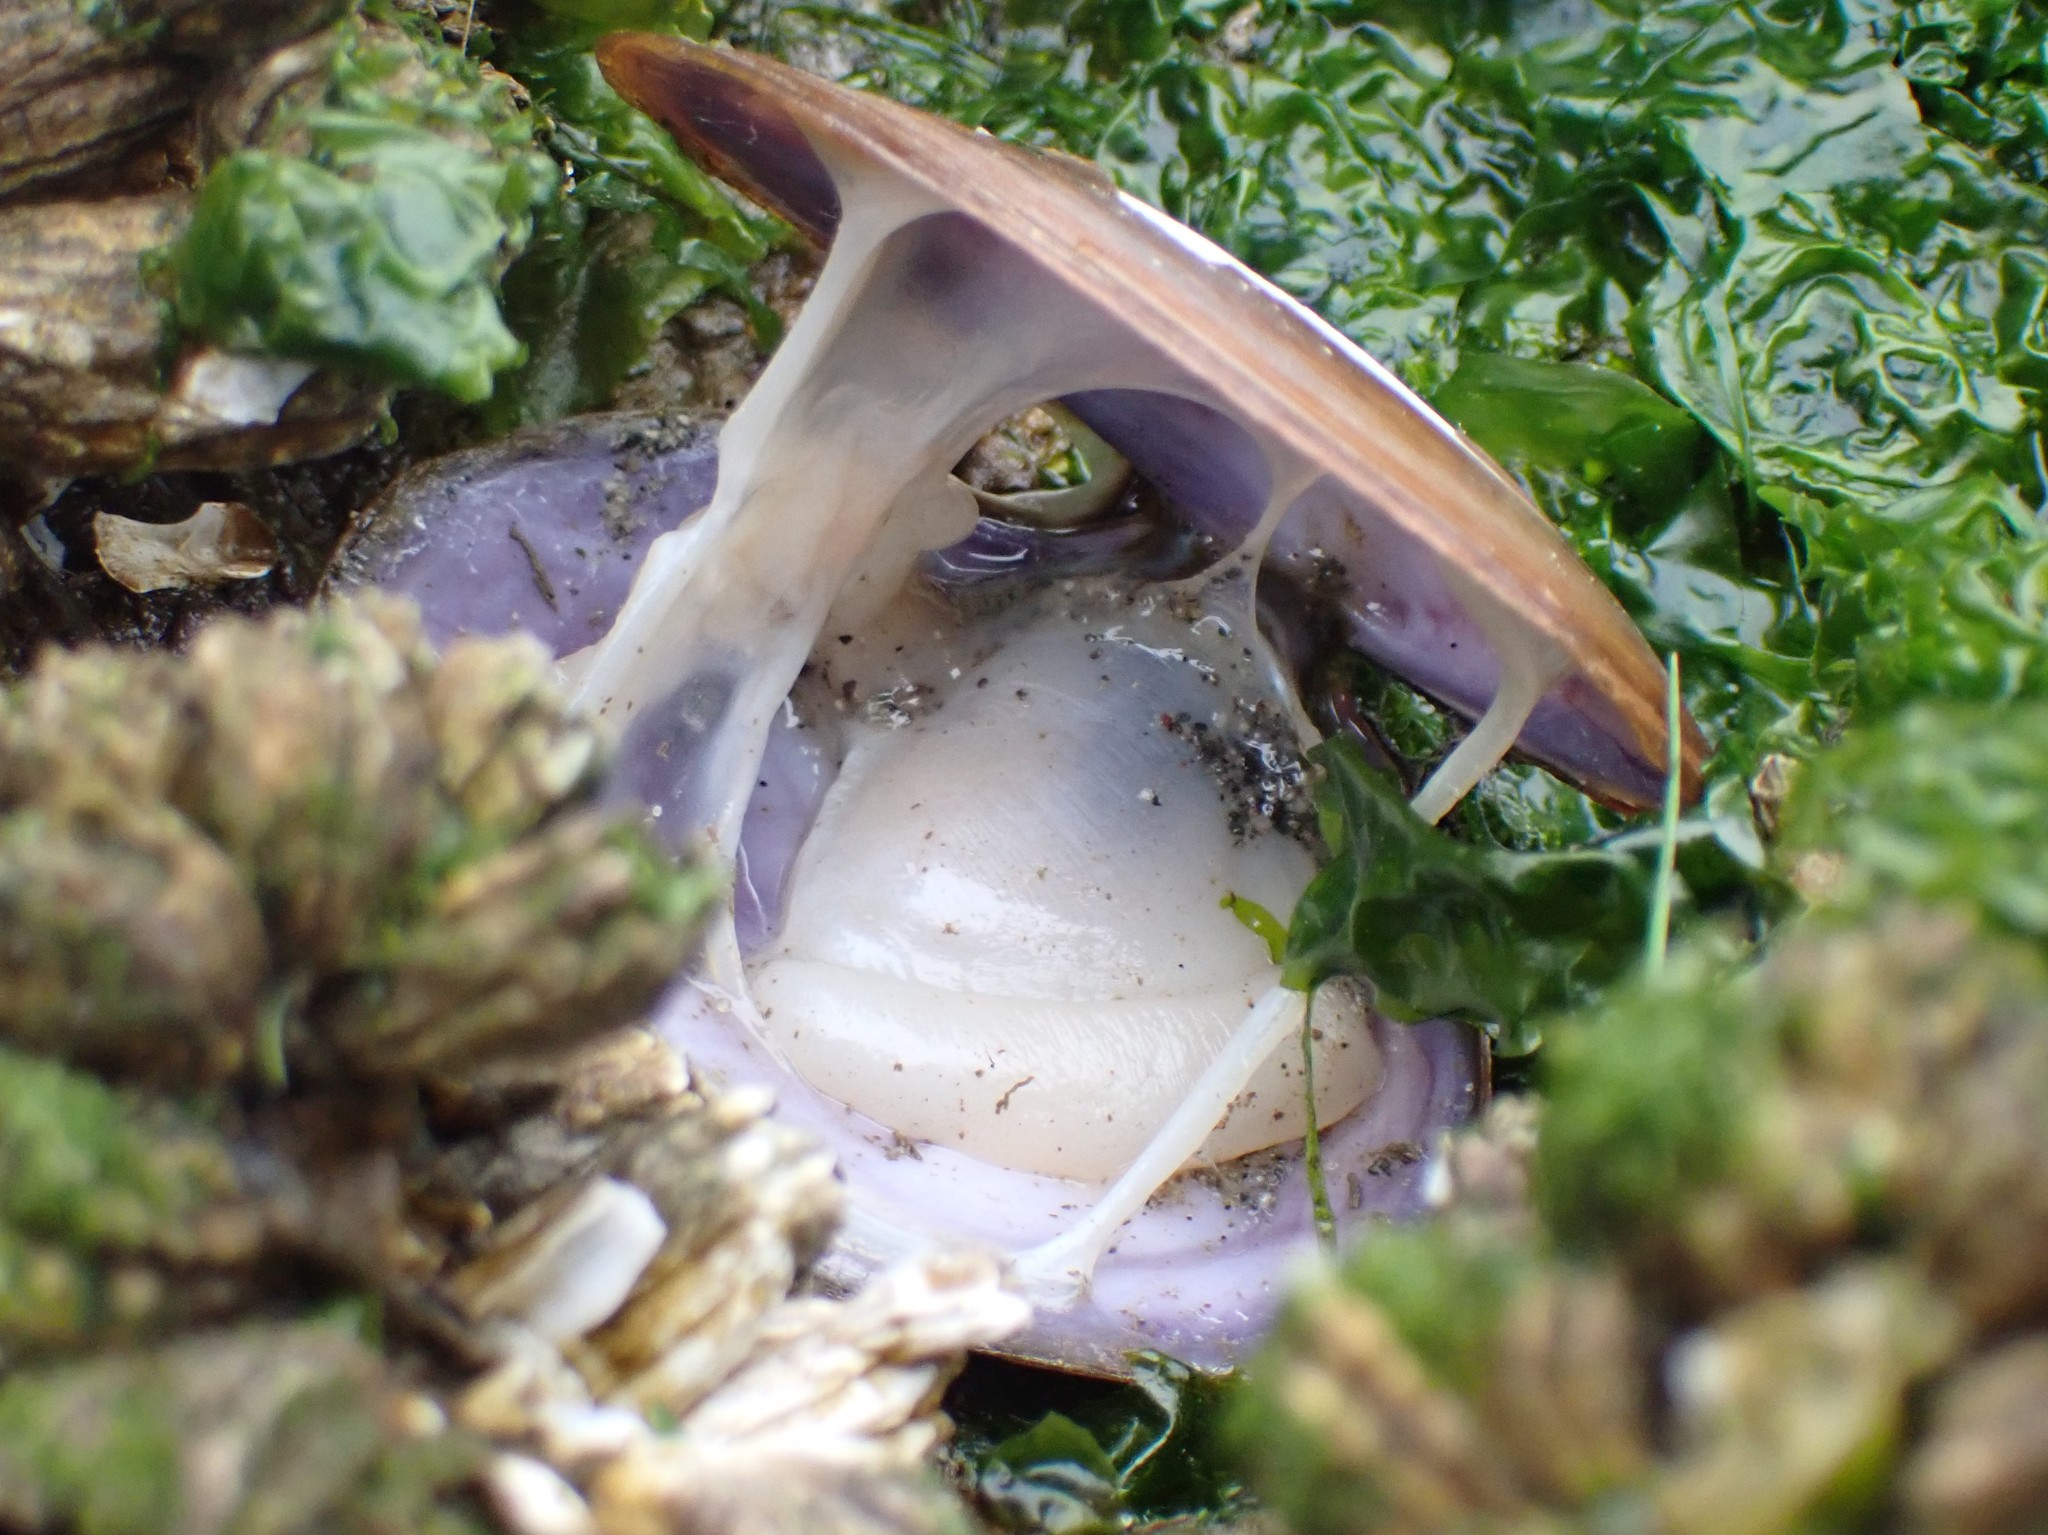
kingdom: Animalia
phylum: Mollusca
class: Bivalvia
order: Cardiida
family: Psammobiidae
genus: Nuttallia
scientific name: Nuttallia obscurata
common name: Purple mahogany-clam
